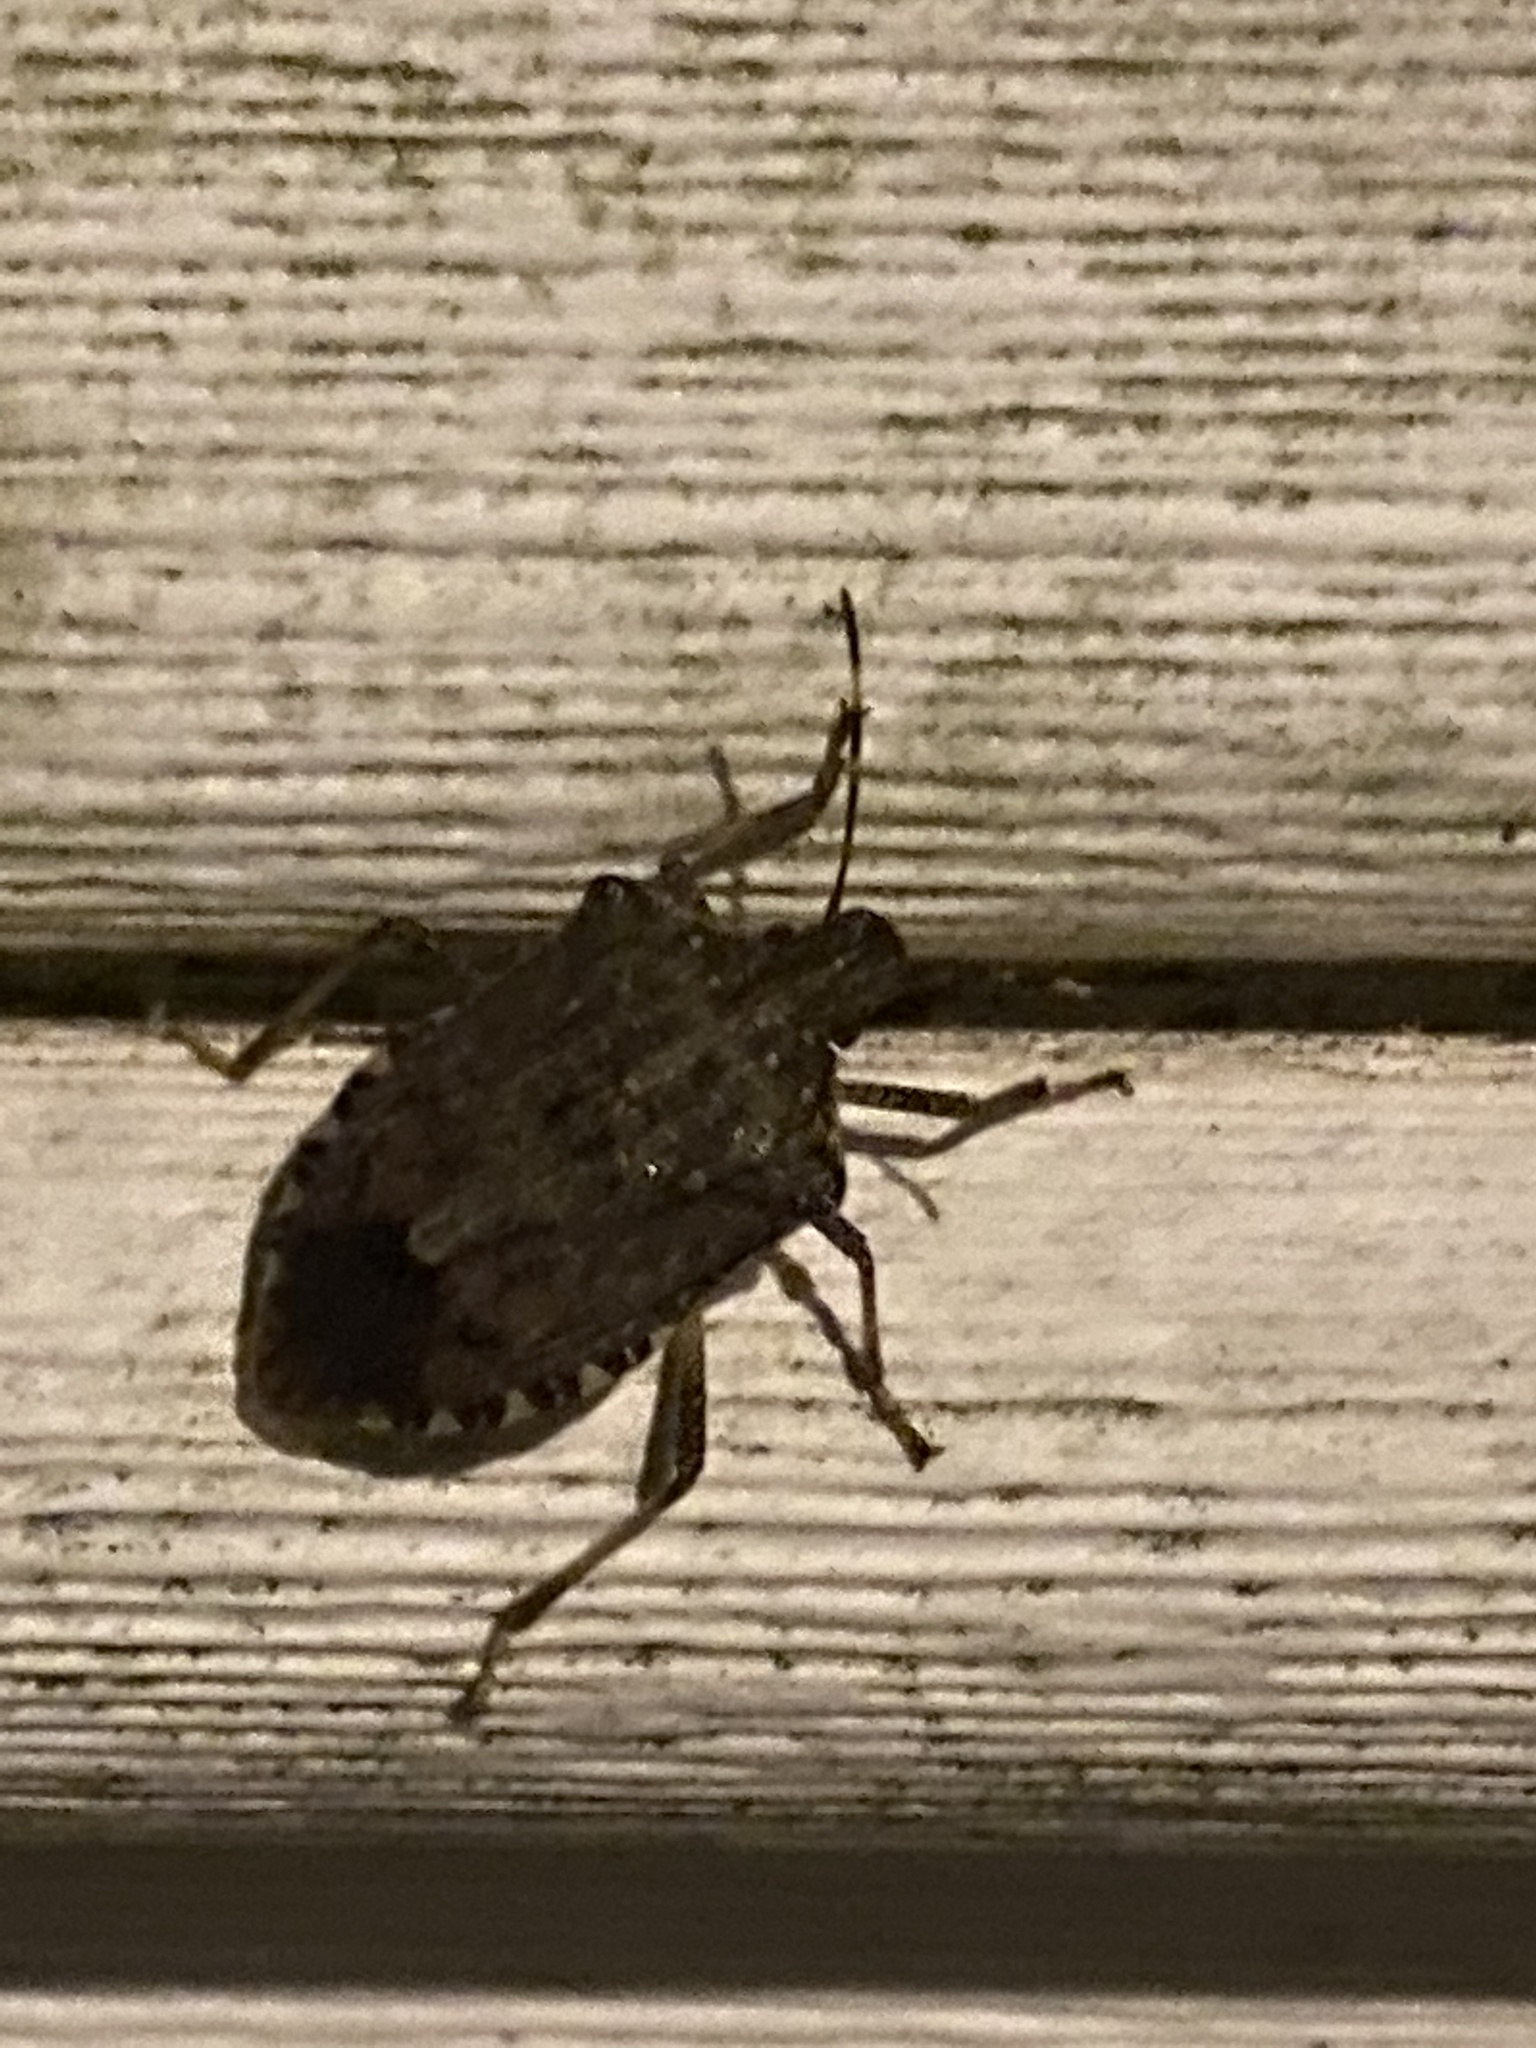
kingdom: Animalia
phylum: Arthropoda
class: Insecta
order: Hemiptera
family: Pentatomidae
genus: Halyomorpha
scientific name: Halyomorpha halys
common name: Brown marmorated stink bug
